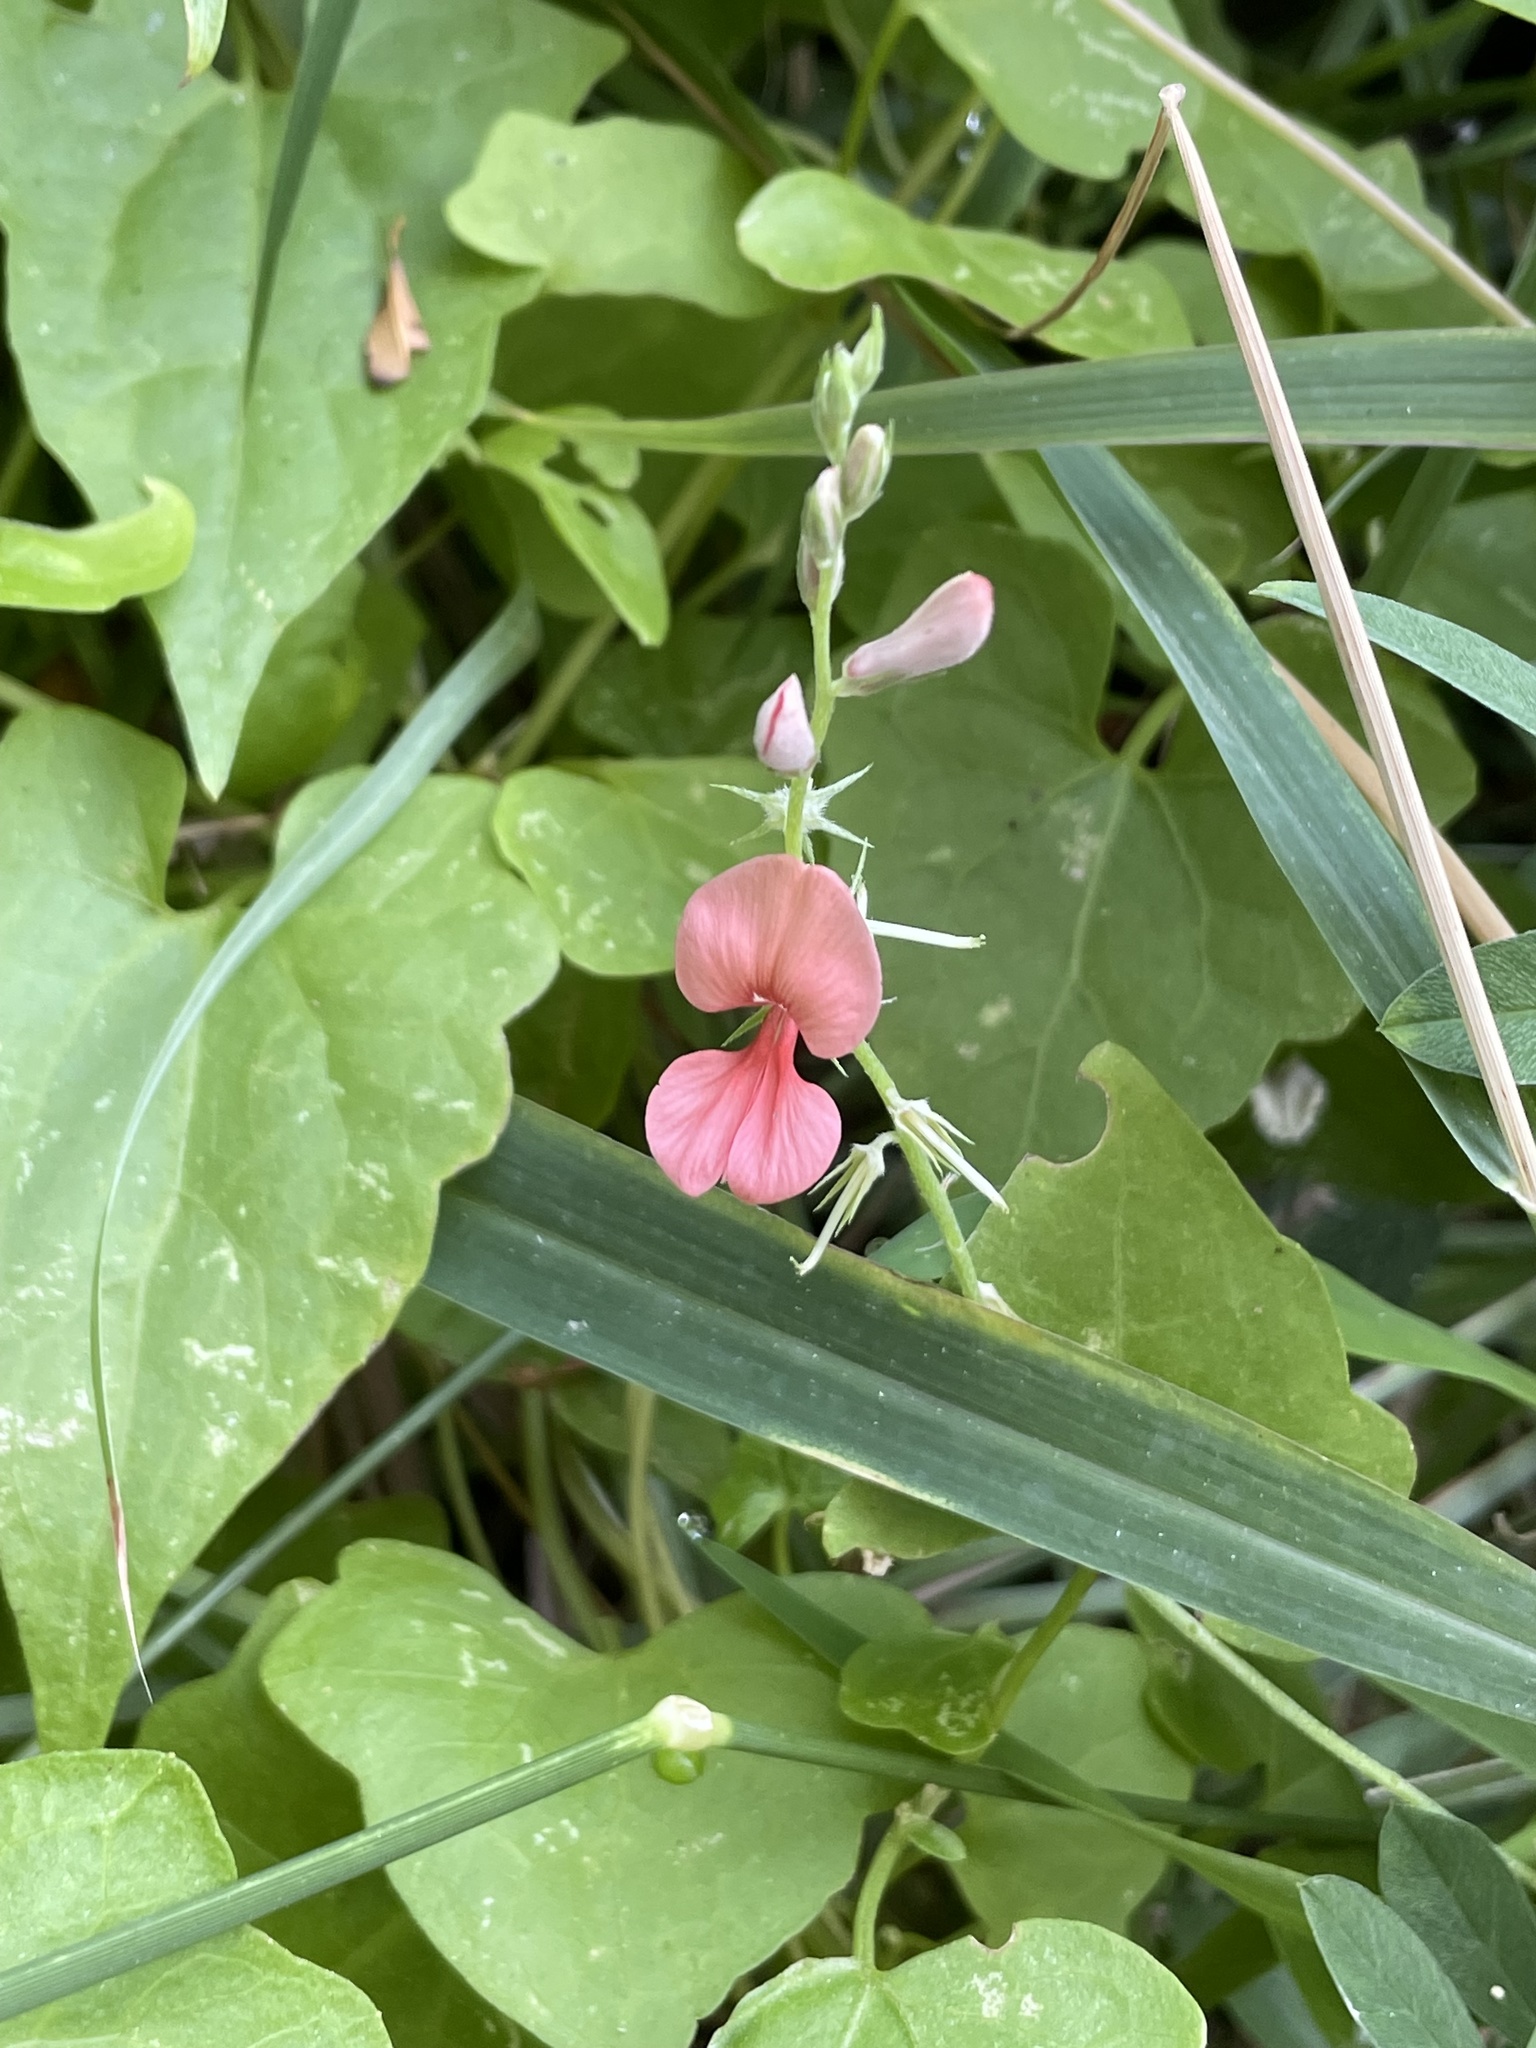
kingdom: Plantae
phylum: Tracheophyta
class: Magnoliopsida
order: Fabales
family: Fabaceae
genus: Indigofera
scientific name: Indigofera miniata
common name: Coast indigo
